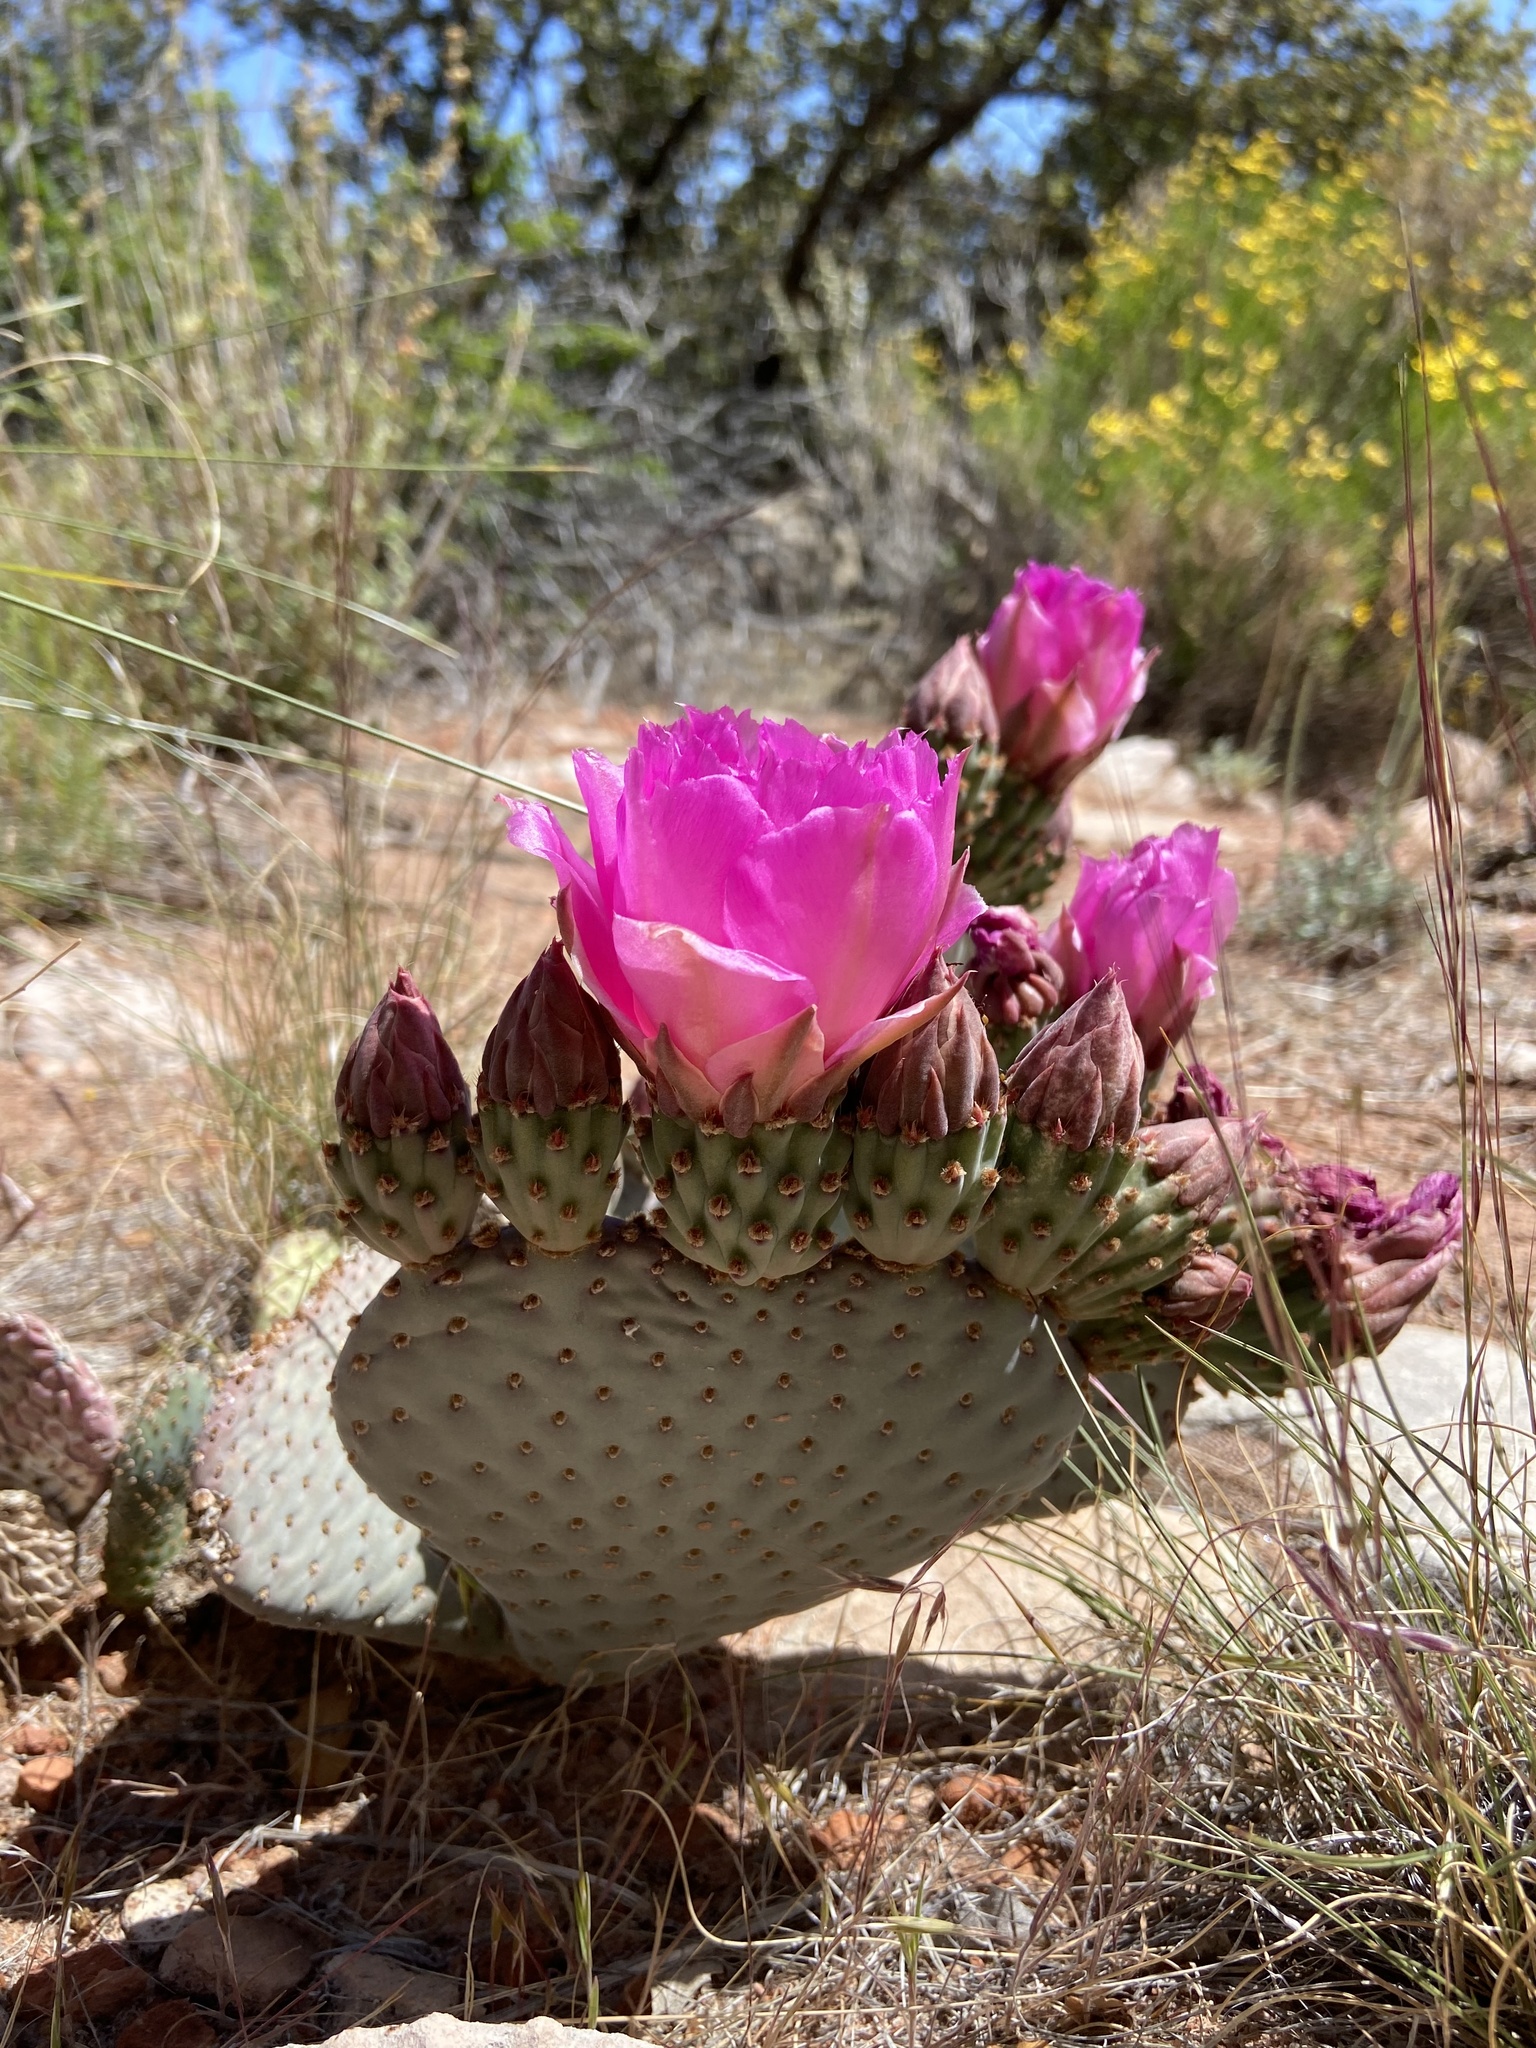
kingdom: Plantae
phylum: Tracheophyta
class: Magnoliopsida
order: Caryophyllales
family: Cactaceae
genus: Opuntia
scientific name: Opuntia basilaris
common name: Beavertail prickly-pear
